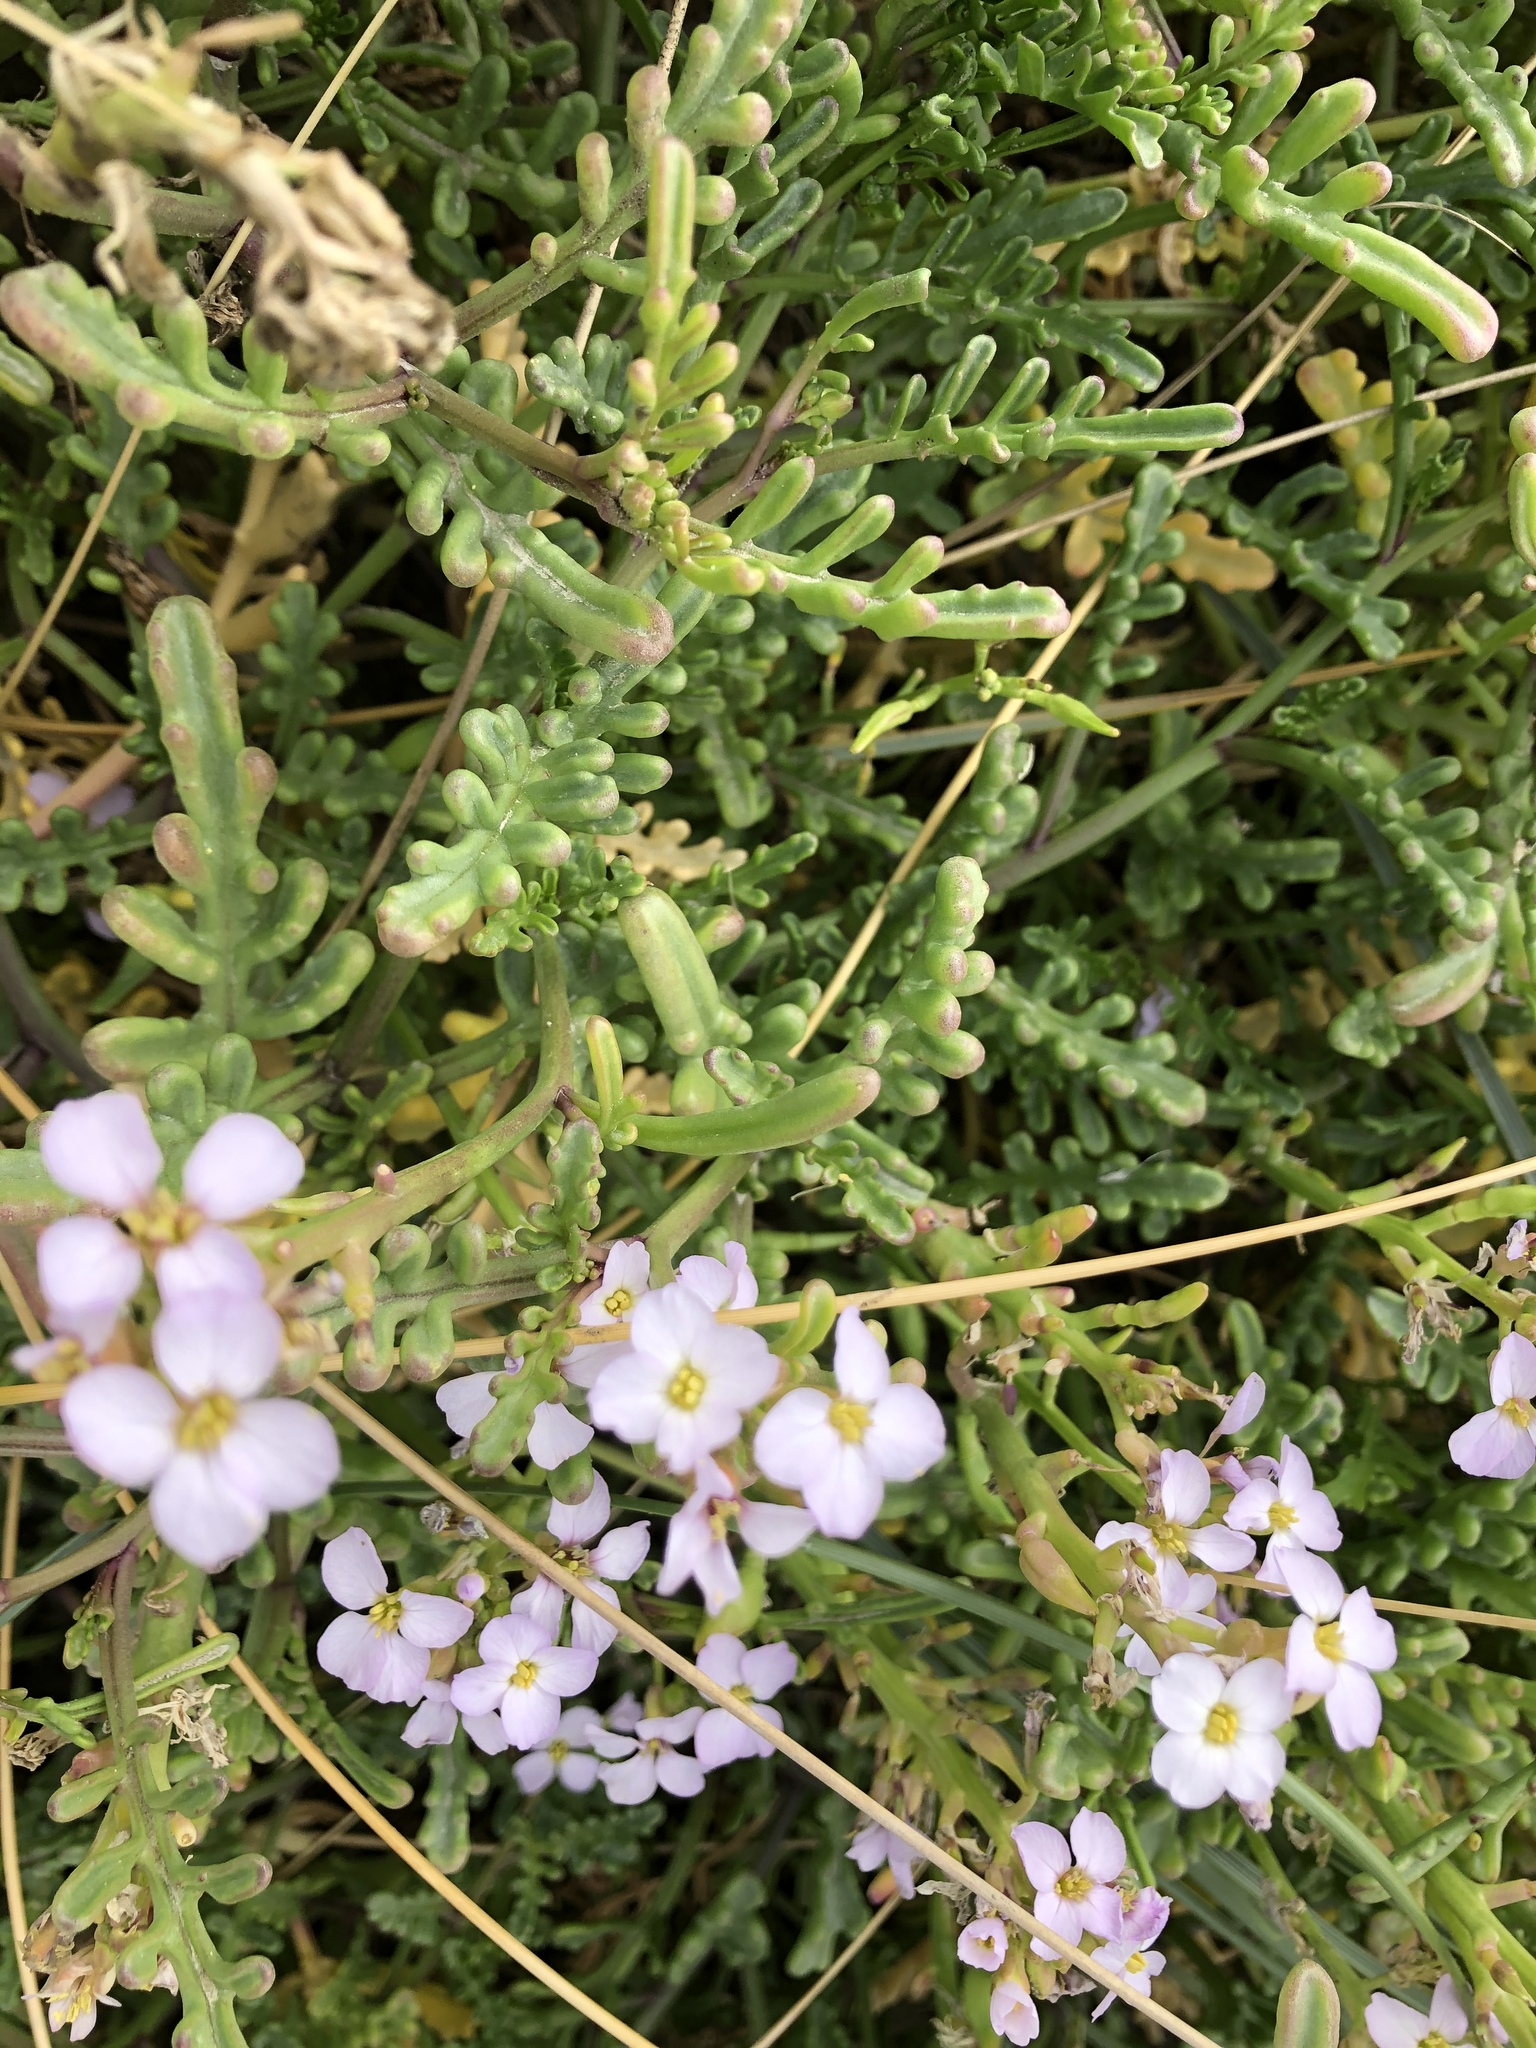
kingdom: Plantae
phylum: Tracheophyta
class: Magnoliopsida
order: Brassicales
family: Brassicaceae
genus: Cakile
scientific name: Cakile maritima
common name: Sea rocket
